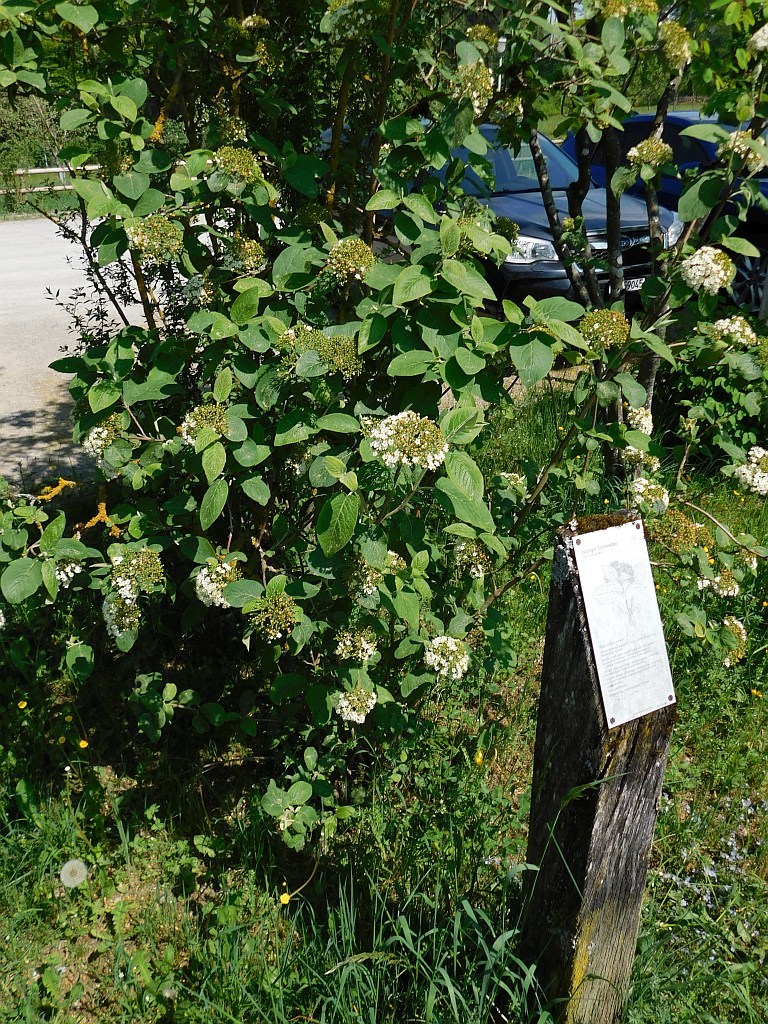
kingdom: Plantae
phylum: Tracheophyta
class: Magnoliopsida
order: Dipsacales
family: Viburnaceae
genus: Viburnum
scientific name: Viburnum lantana
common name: Wayfaring tree
